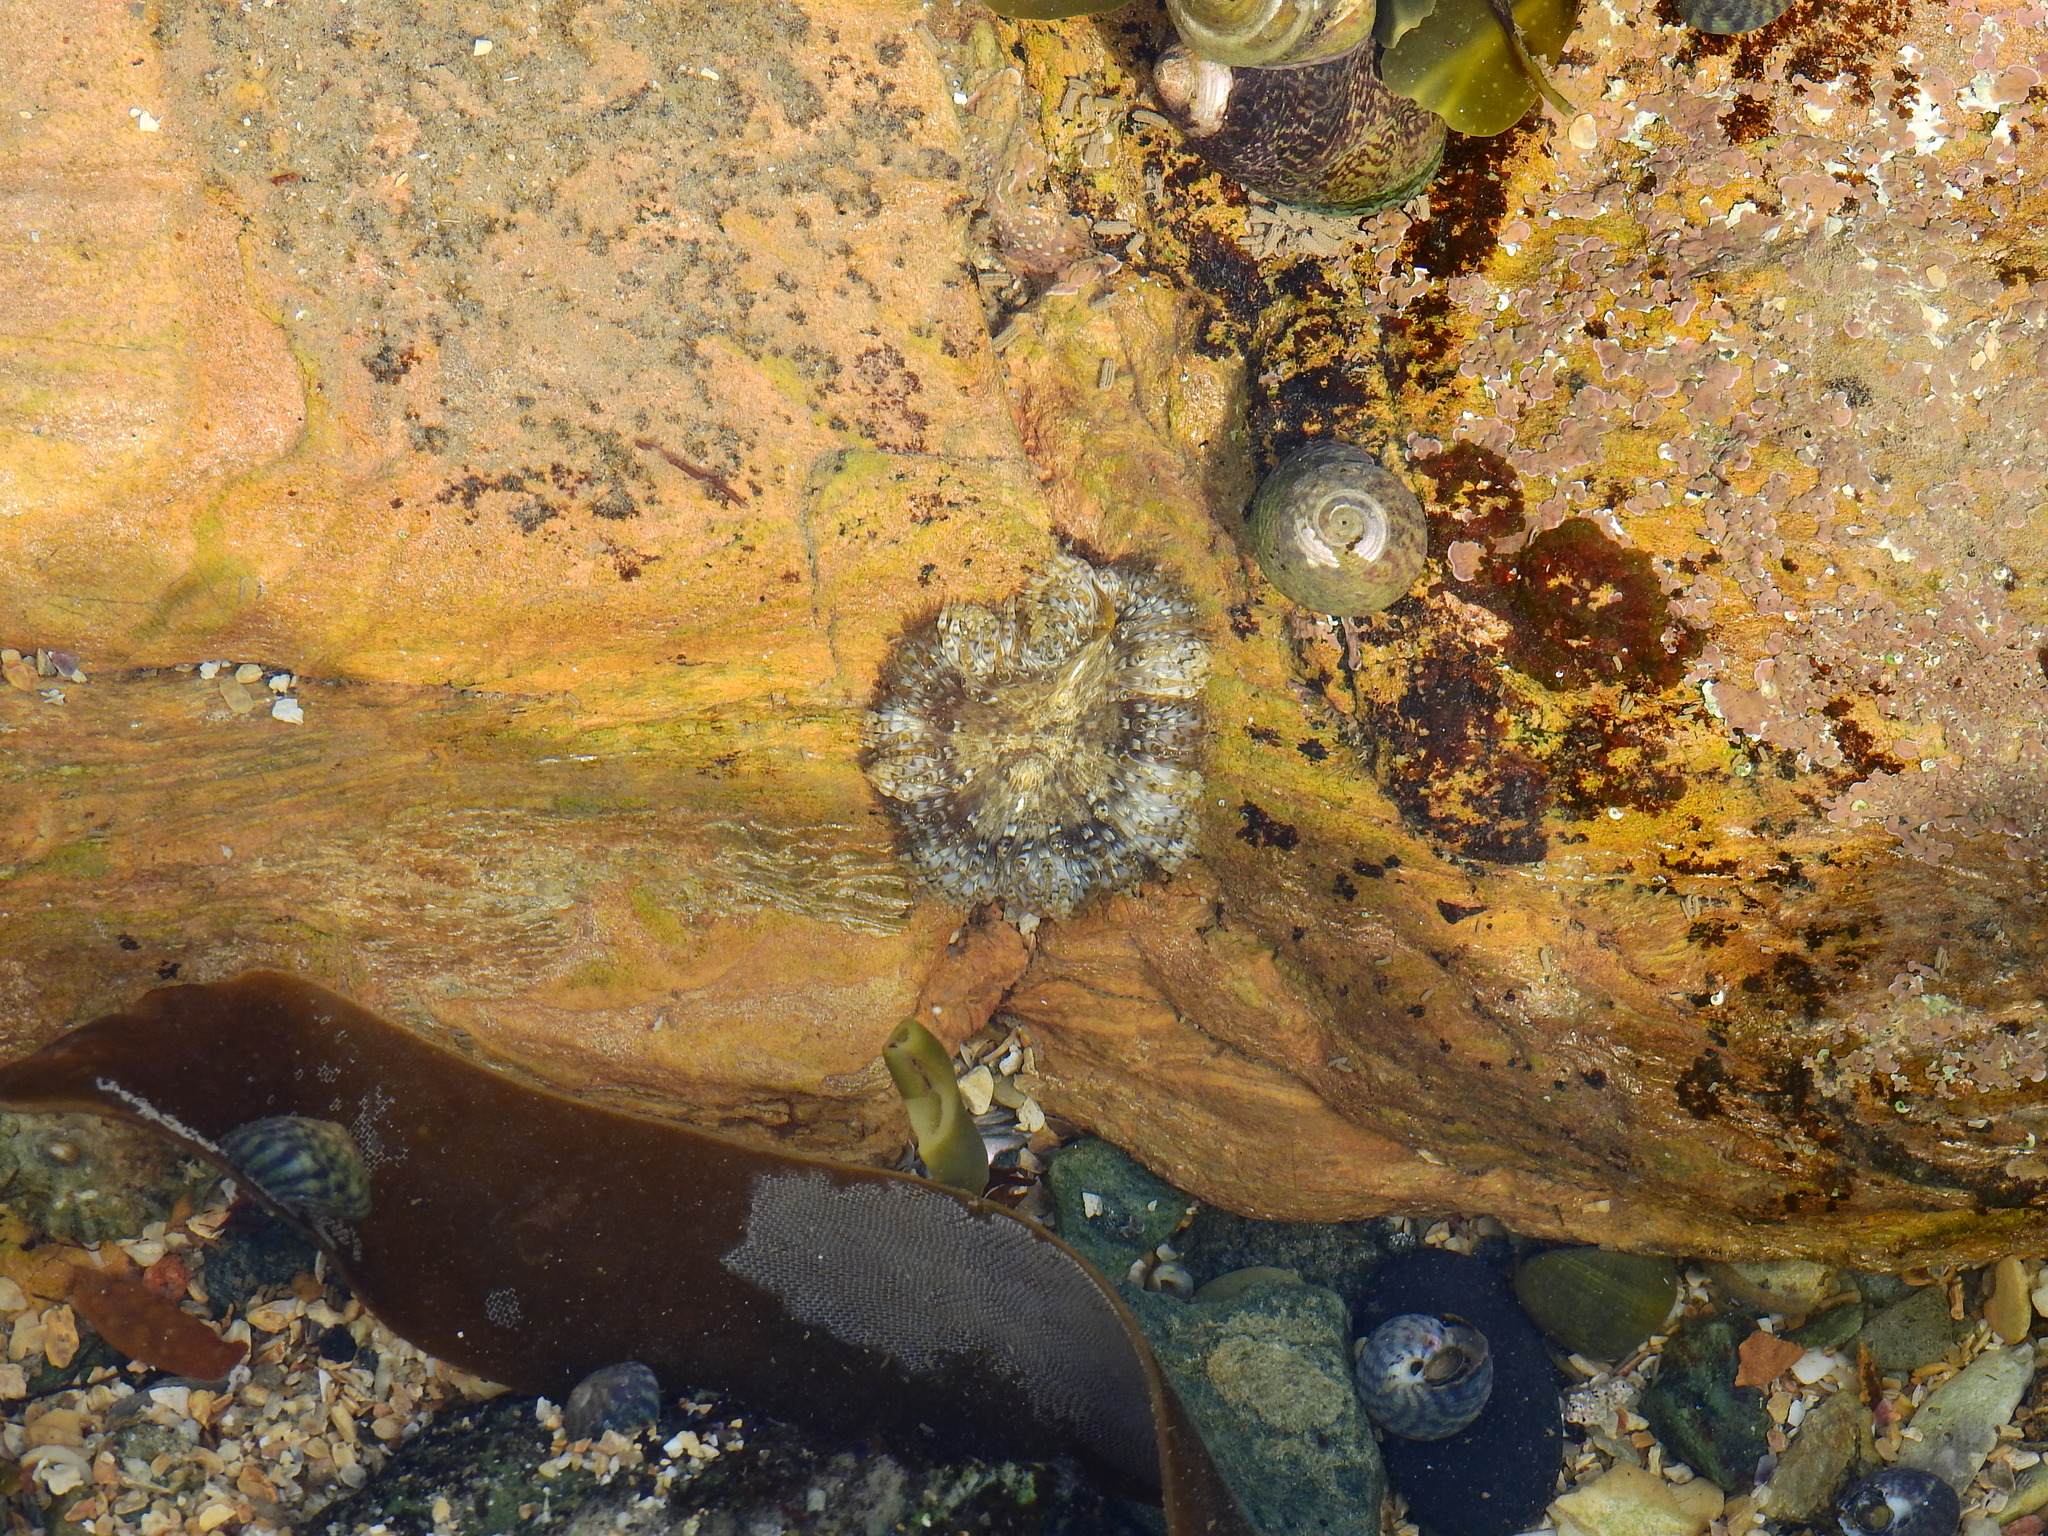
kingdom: Animalia
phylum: Cnidaria
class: Anthozoa
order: Actiniaria
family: Sagartiidae
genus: Cereus
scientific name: Cereus pedunculatus
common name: Daisy anemone
